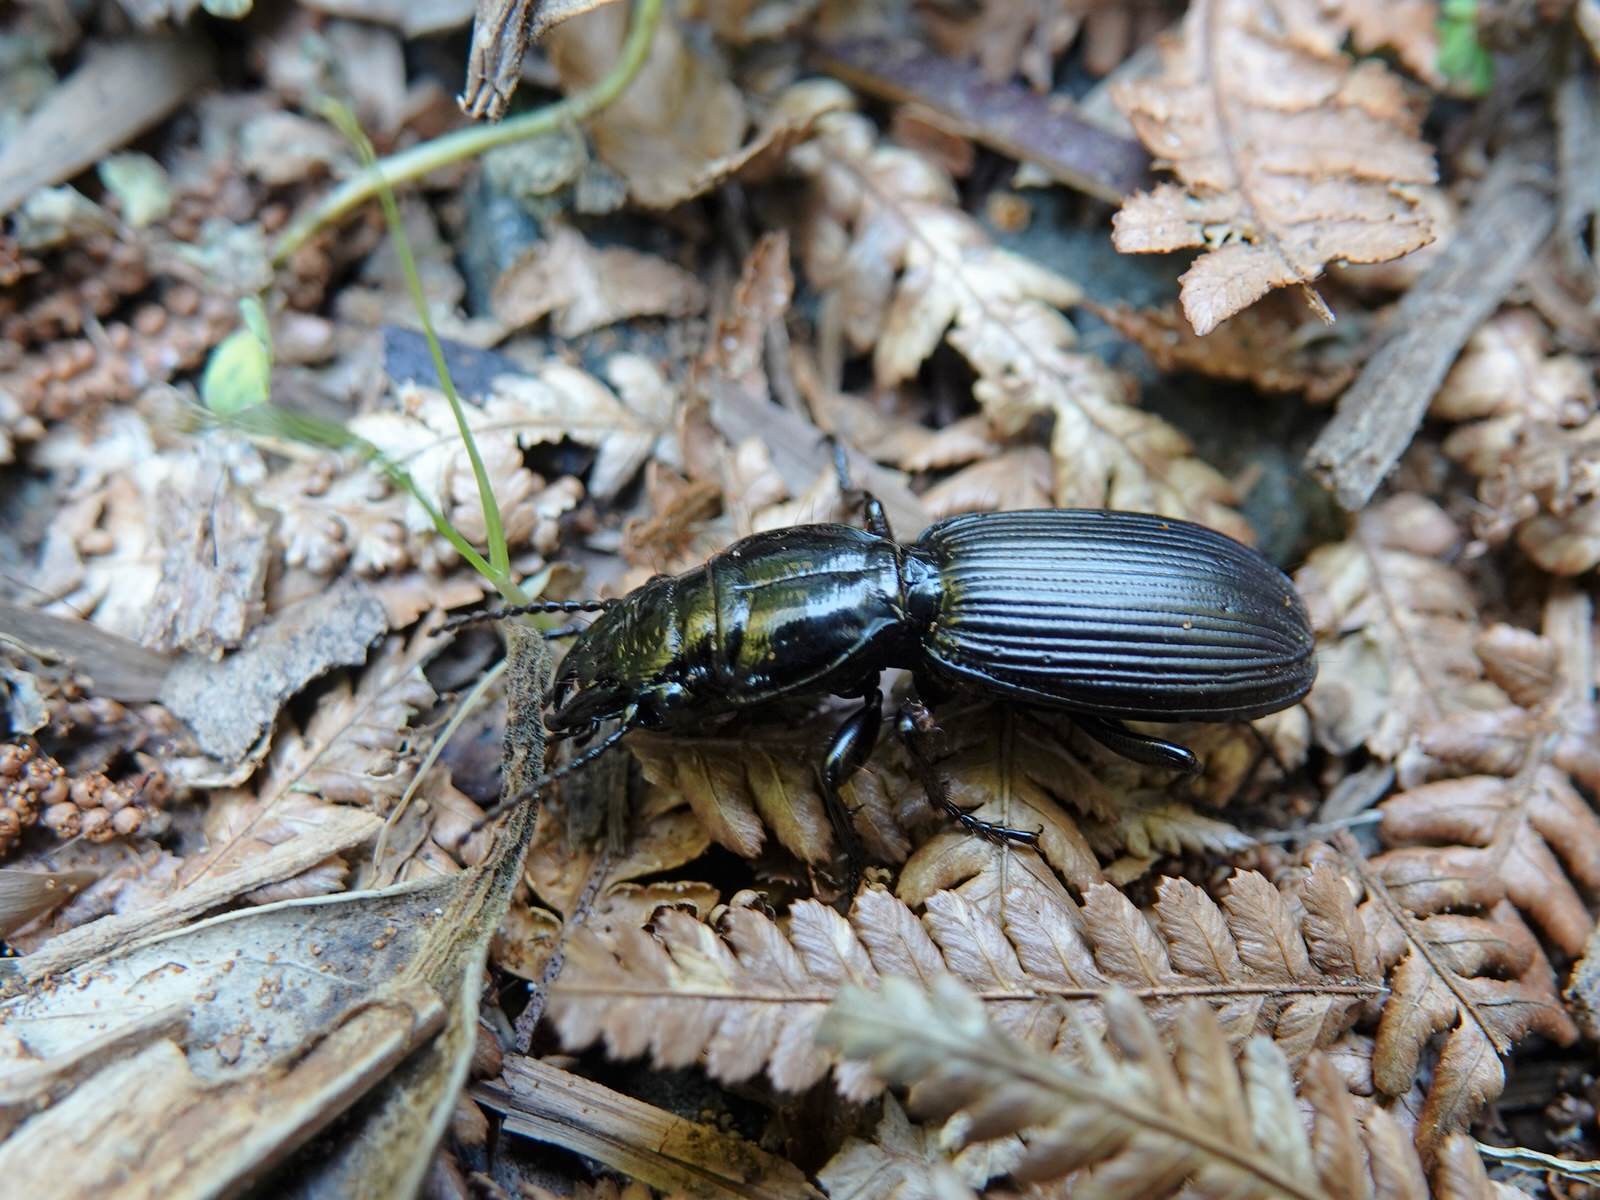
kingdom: Animalia
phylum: Arthropoda
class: Insecta
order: Coleoptera
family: Carabidae
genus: Mecodema
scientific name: Mecodema spiniferum
